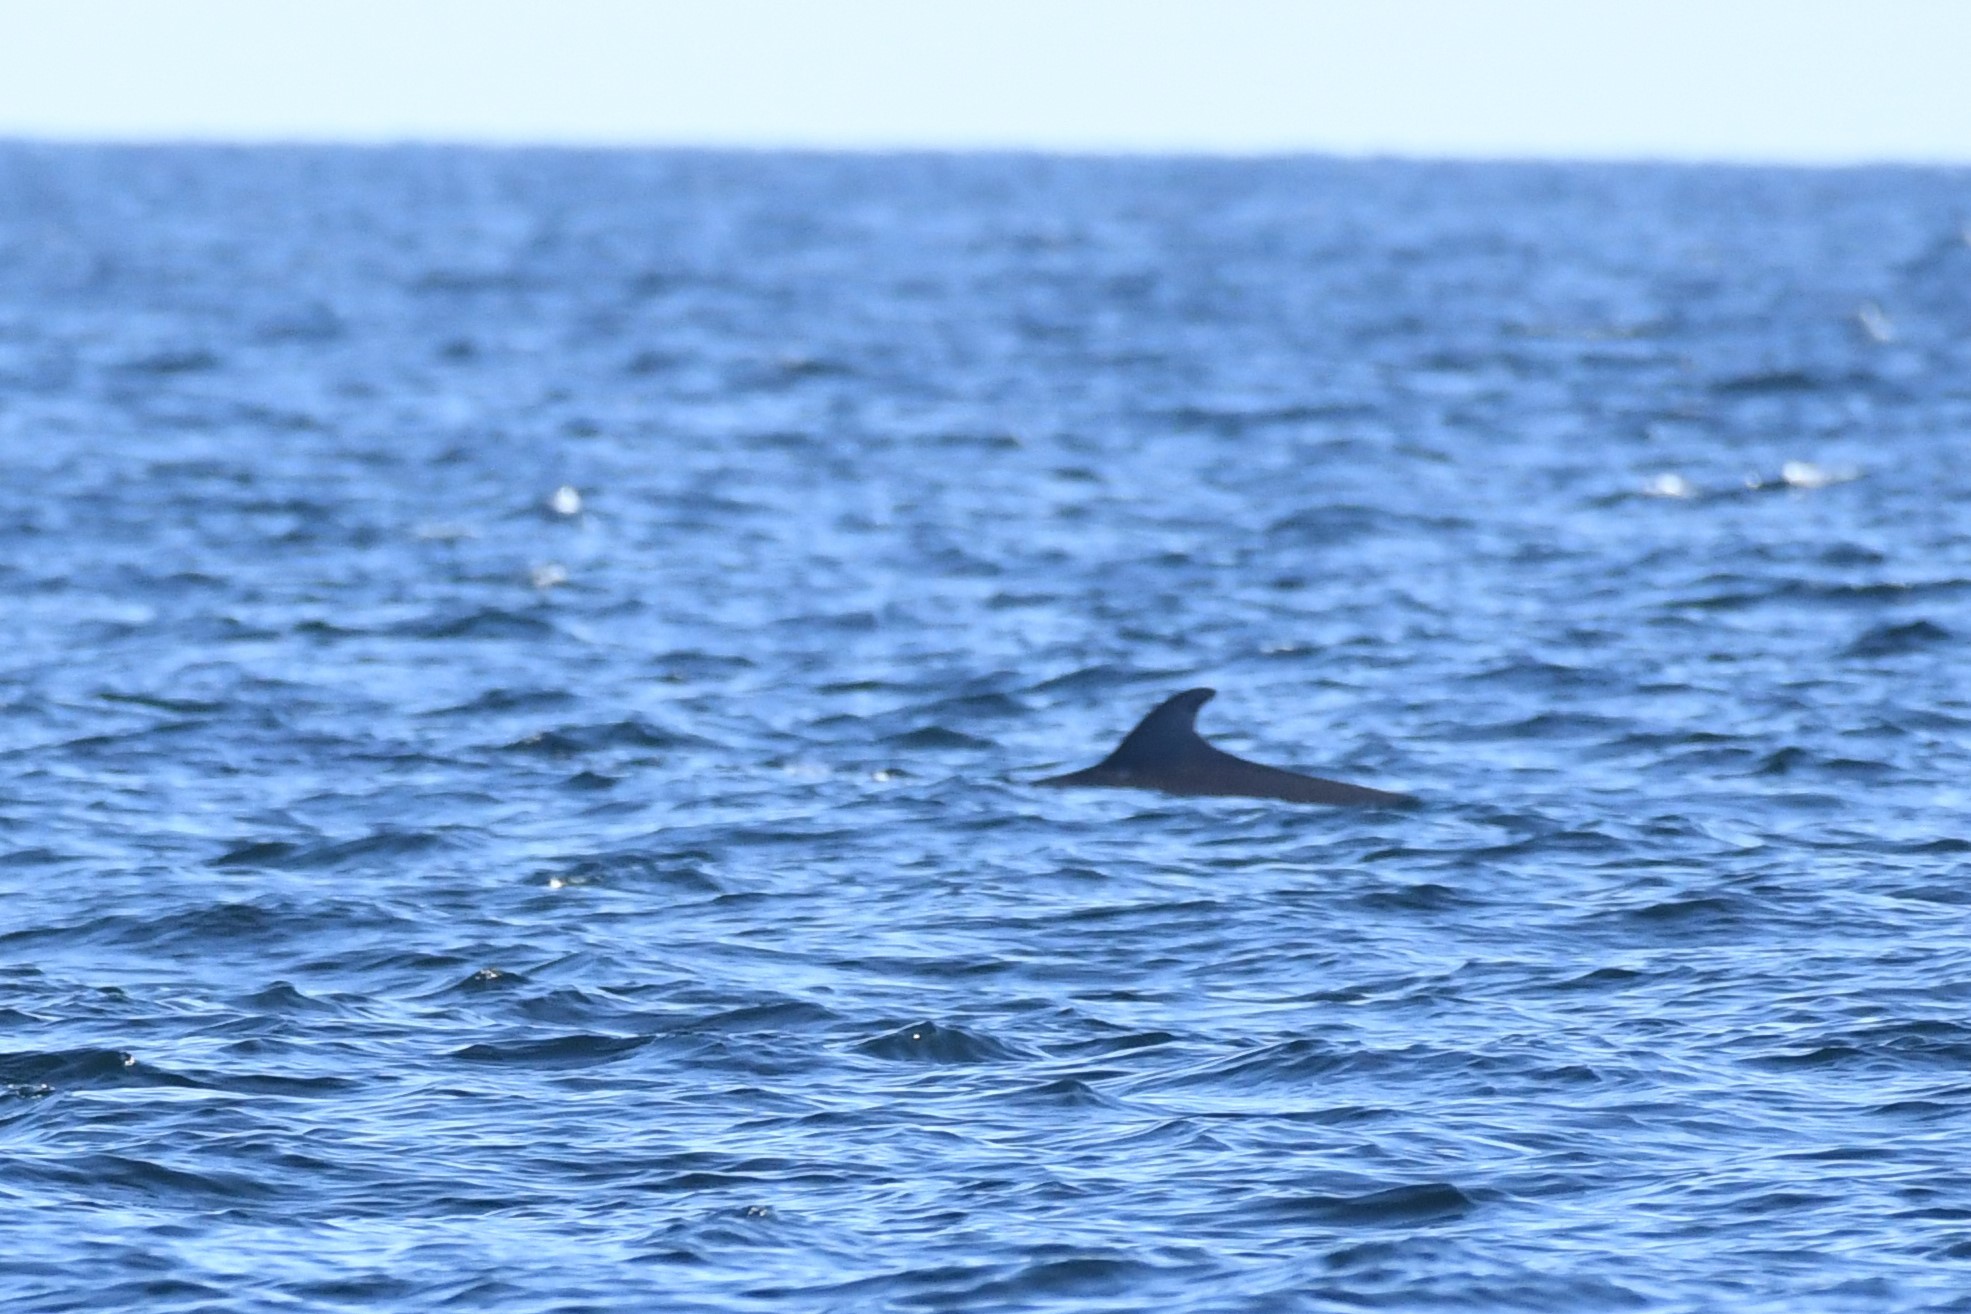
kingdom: Animalia
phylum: Chordata
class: Mammalia
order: Cetacea
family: Balaenopteridae
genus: Balaenoptera
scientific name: Balaenoptera acutorostrata
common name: Common minke whale
